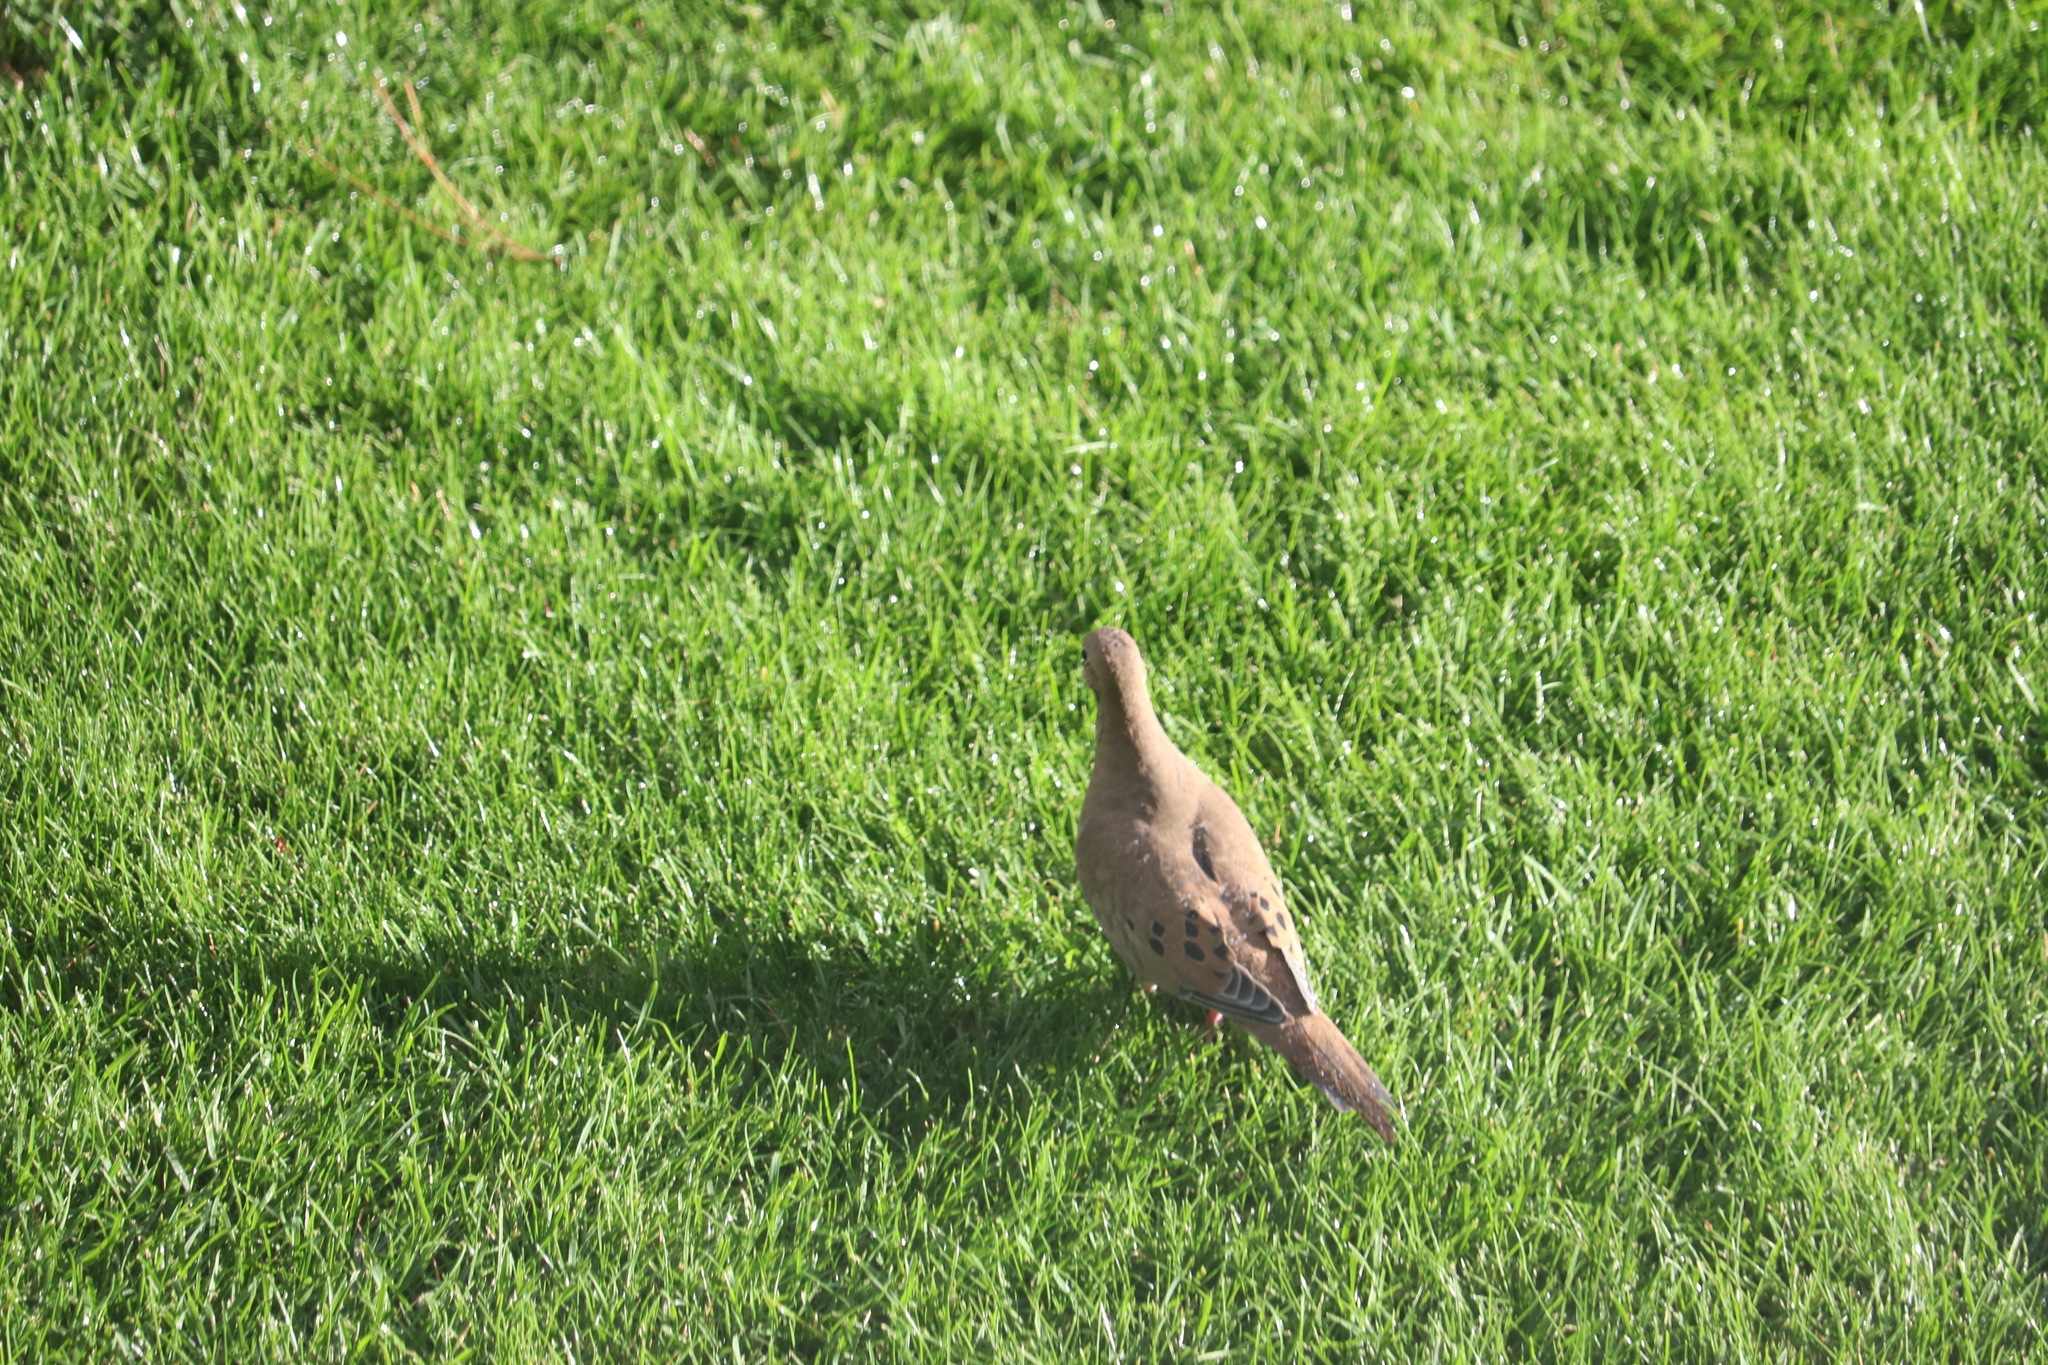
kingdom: Animalia
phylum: Chordata
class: Aves
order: Columbiformes
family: Columbidae
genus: Zenaida
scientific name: Zenaida macroura
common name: Mourning dove
